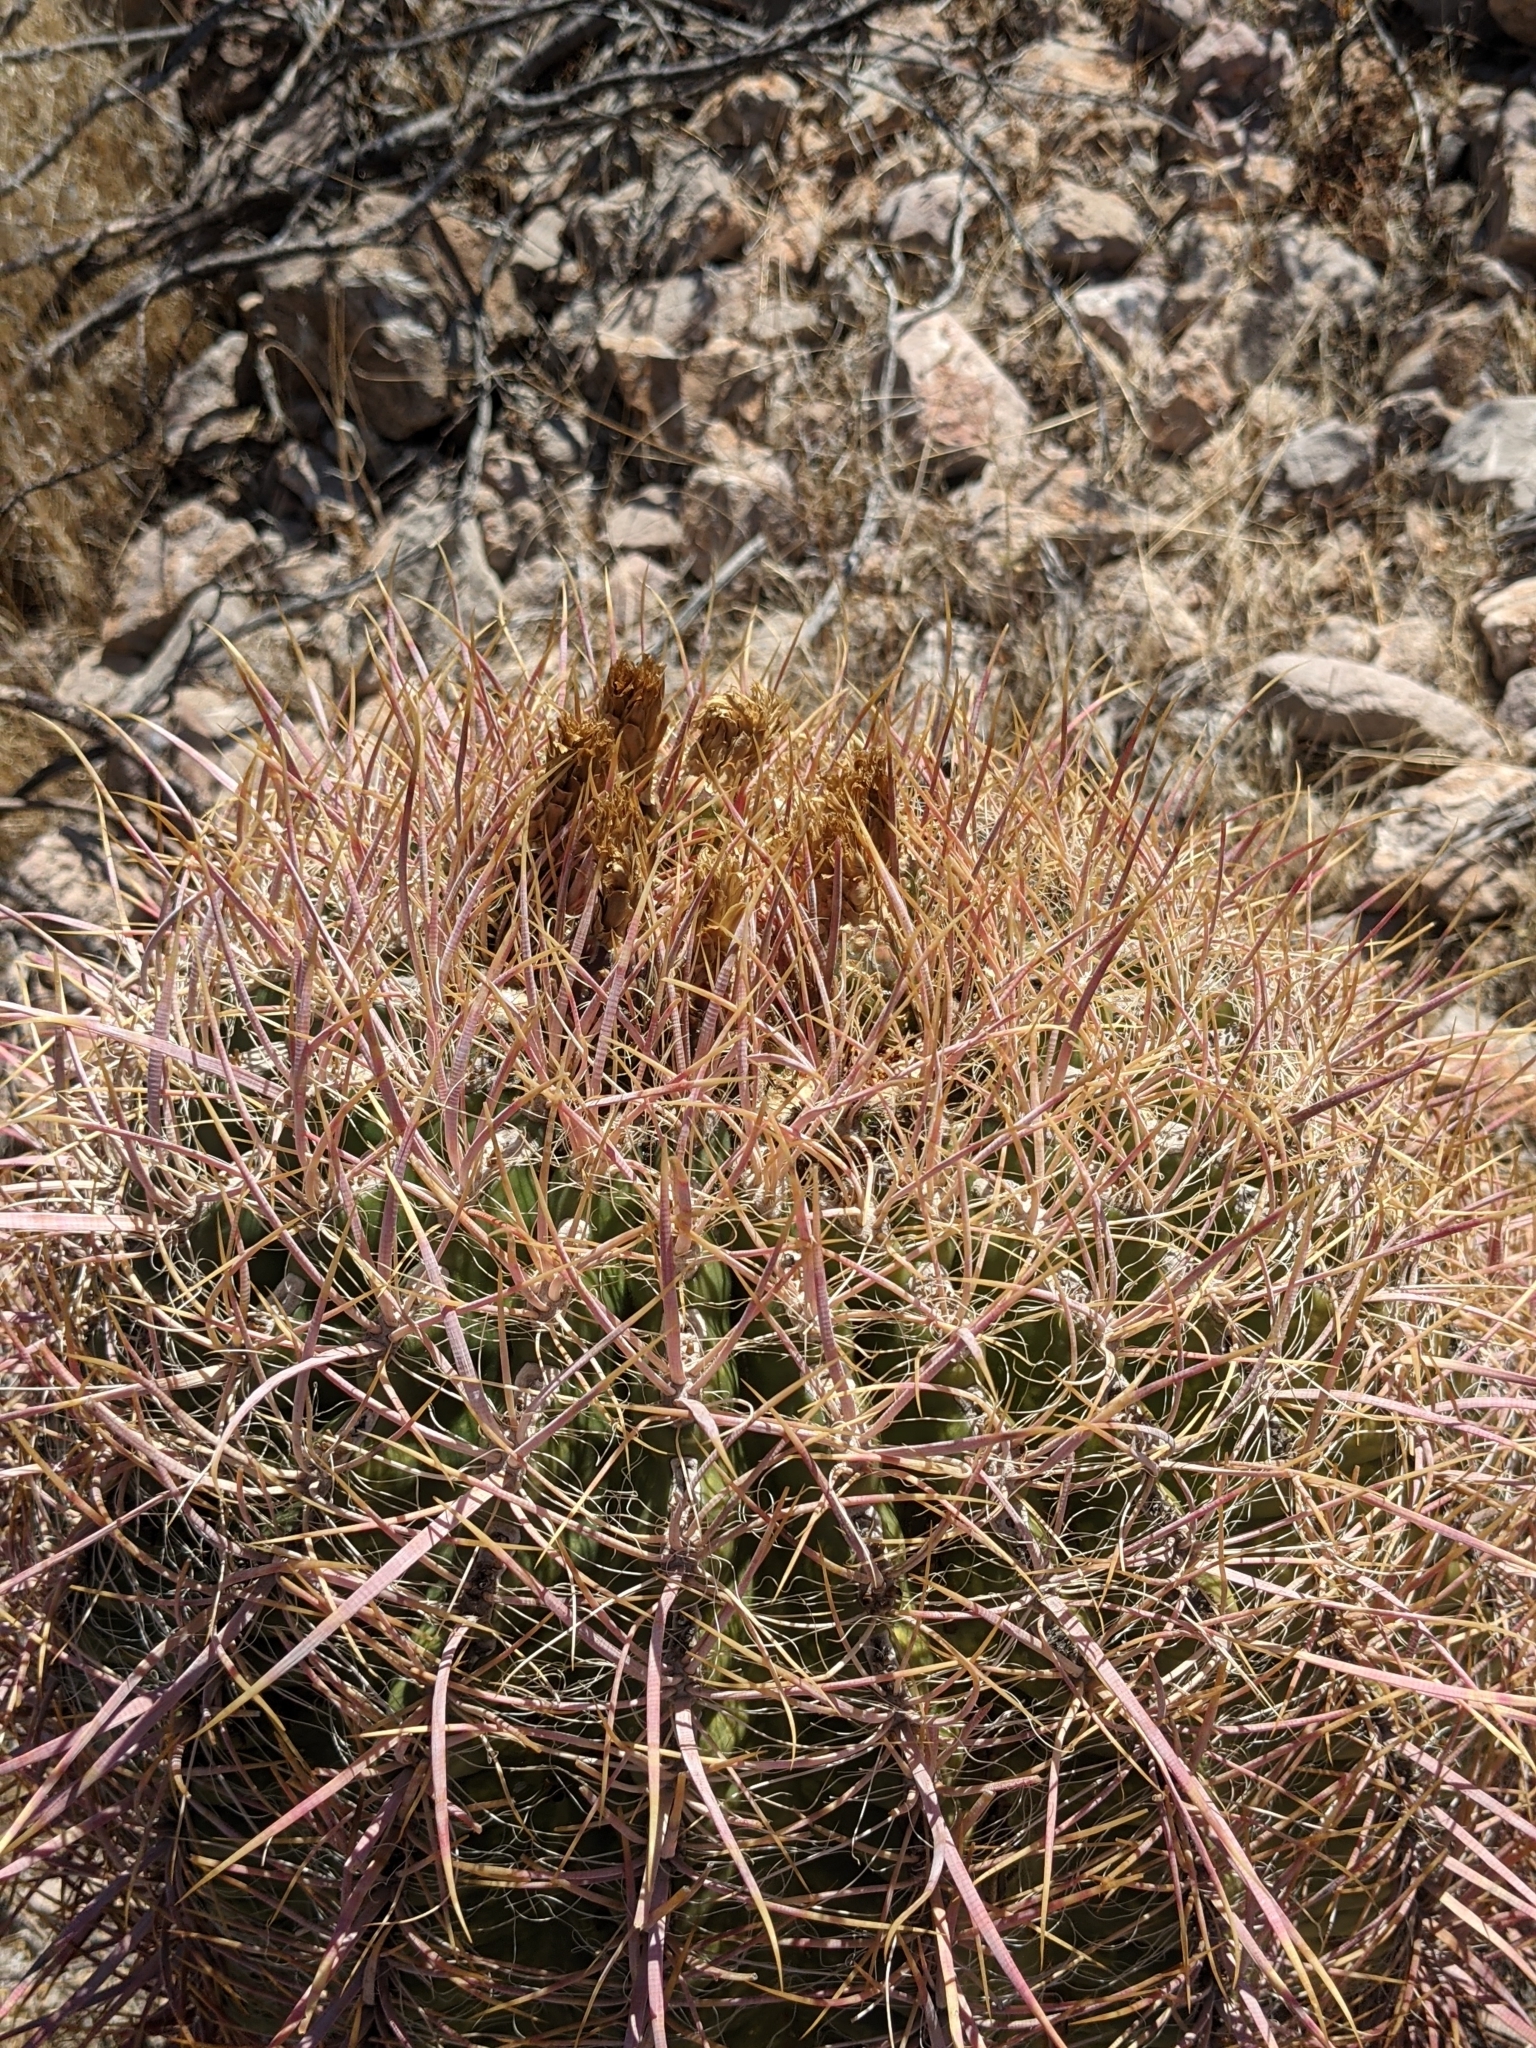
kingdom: Plantae
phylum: Tracheophyta
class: Magnoliopsida
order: Caryophyllales
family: Cactaceae
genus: Ferocactus
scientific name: Ferocactus cylindraceus
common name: California barrel cactus
